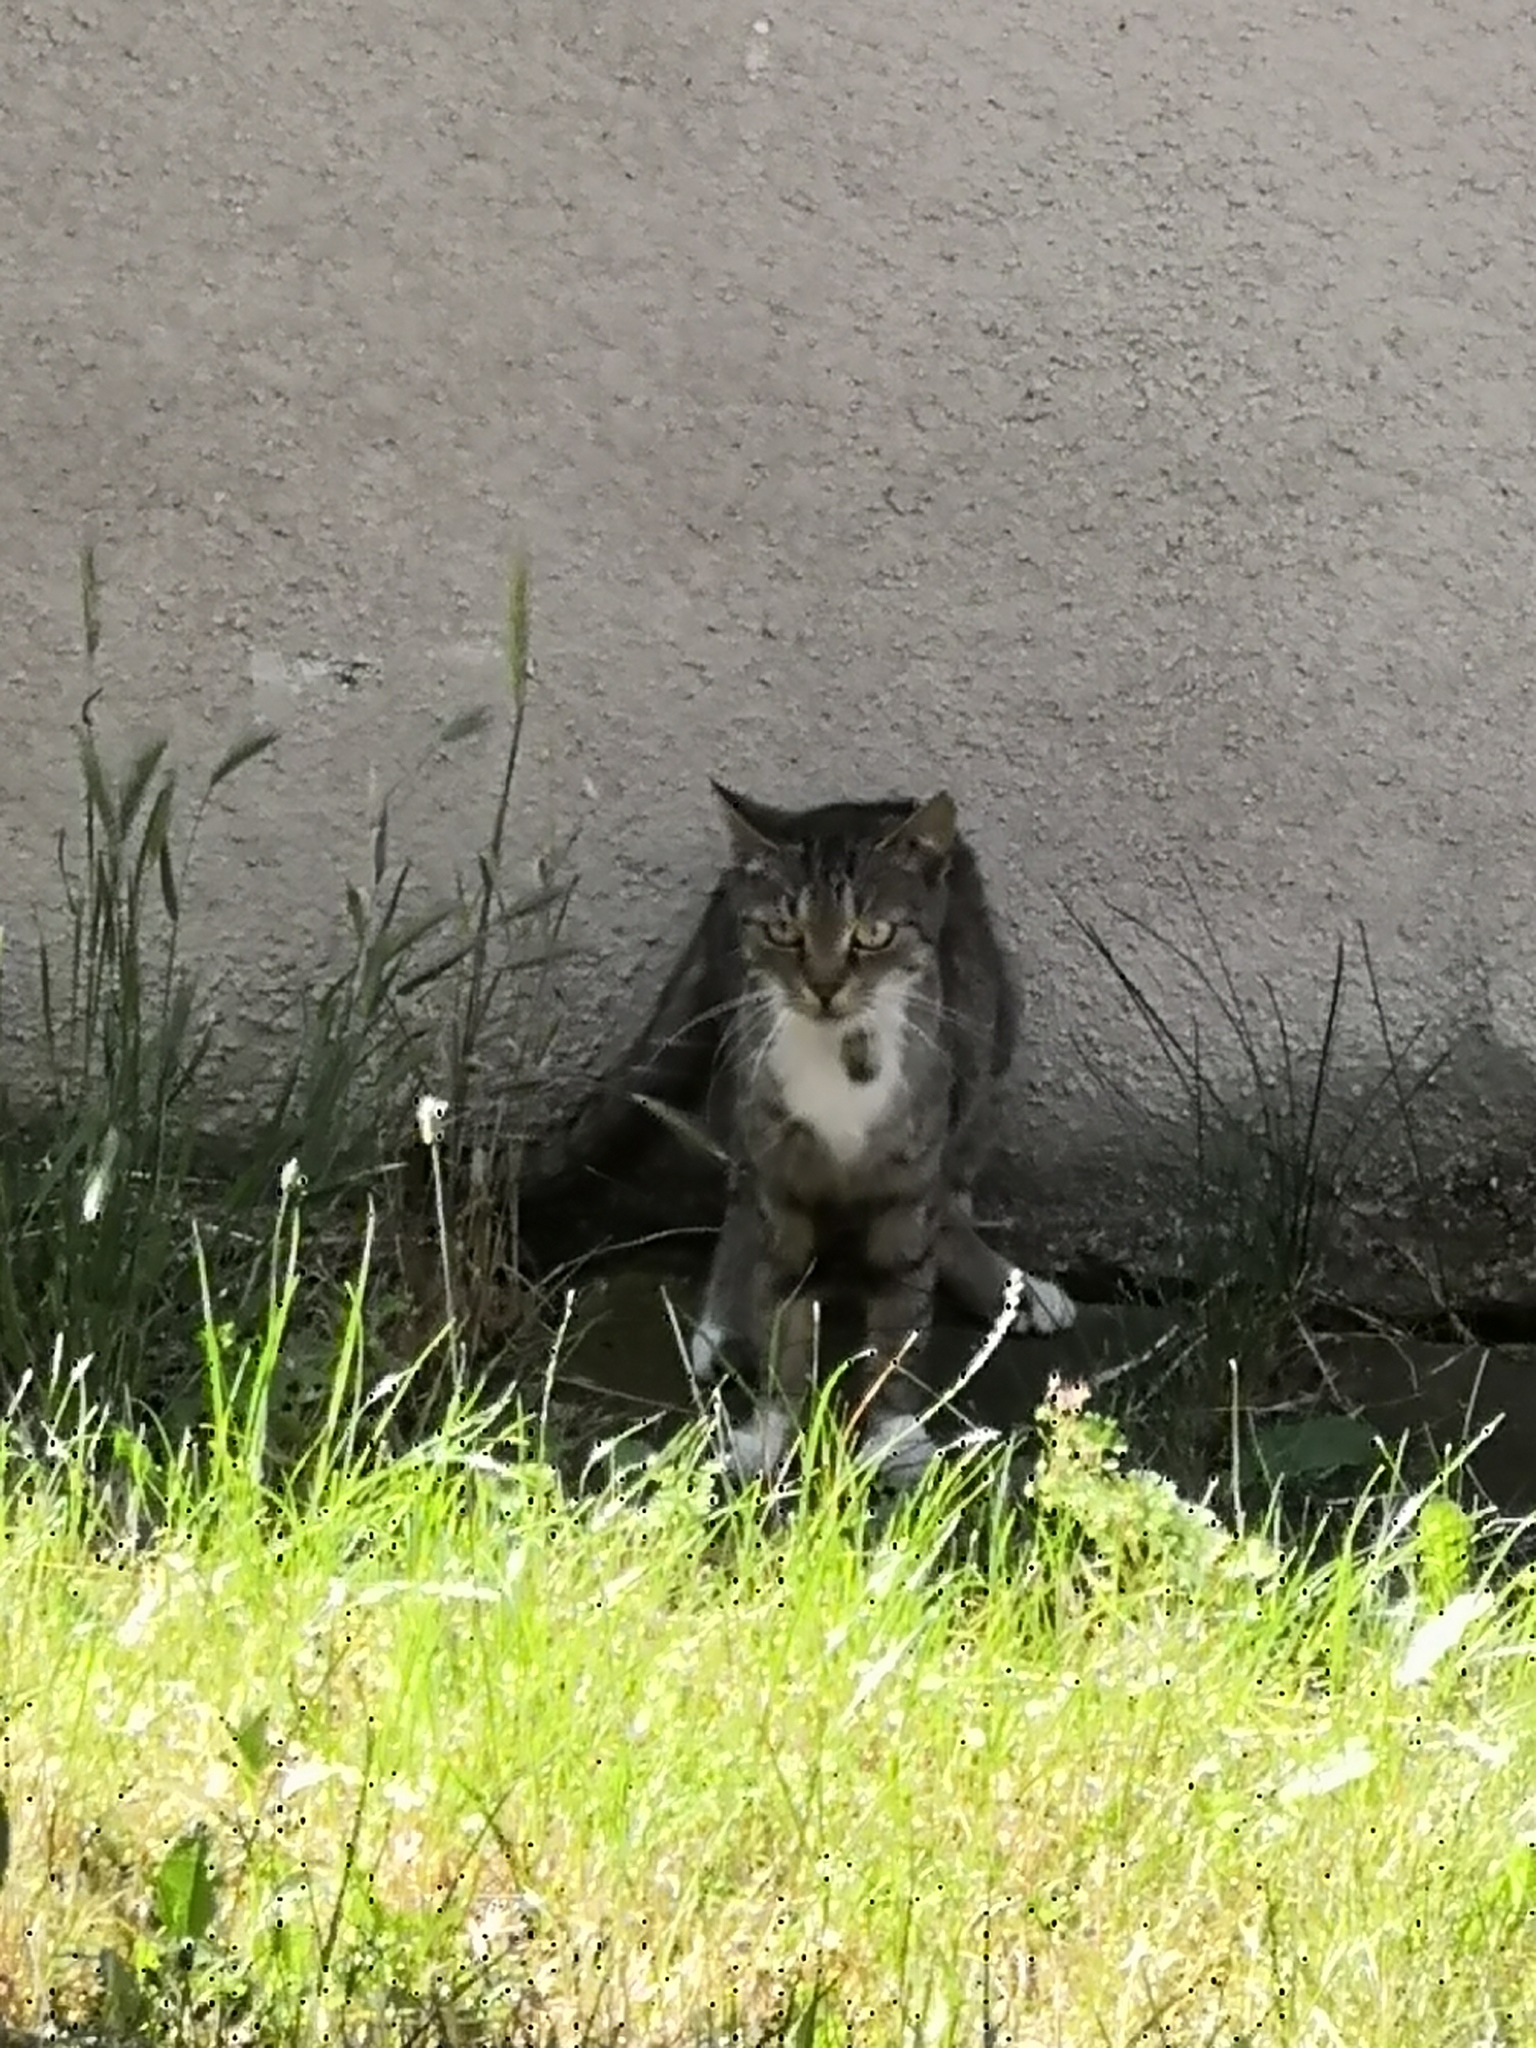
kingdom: Animalia
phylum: Chordata
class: Mammalia
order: Carnivora
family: Felidae
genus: Felis
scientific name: Felis catus
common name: Domestic cat
